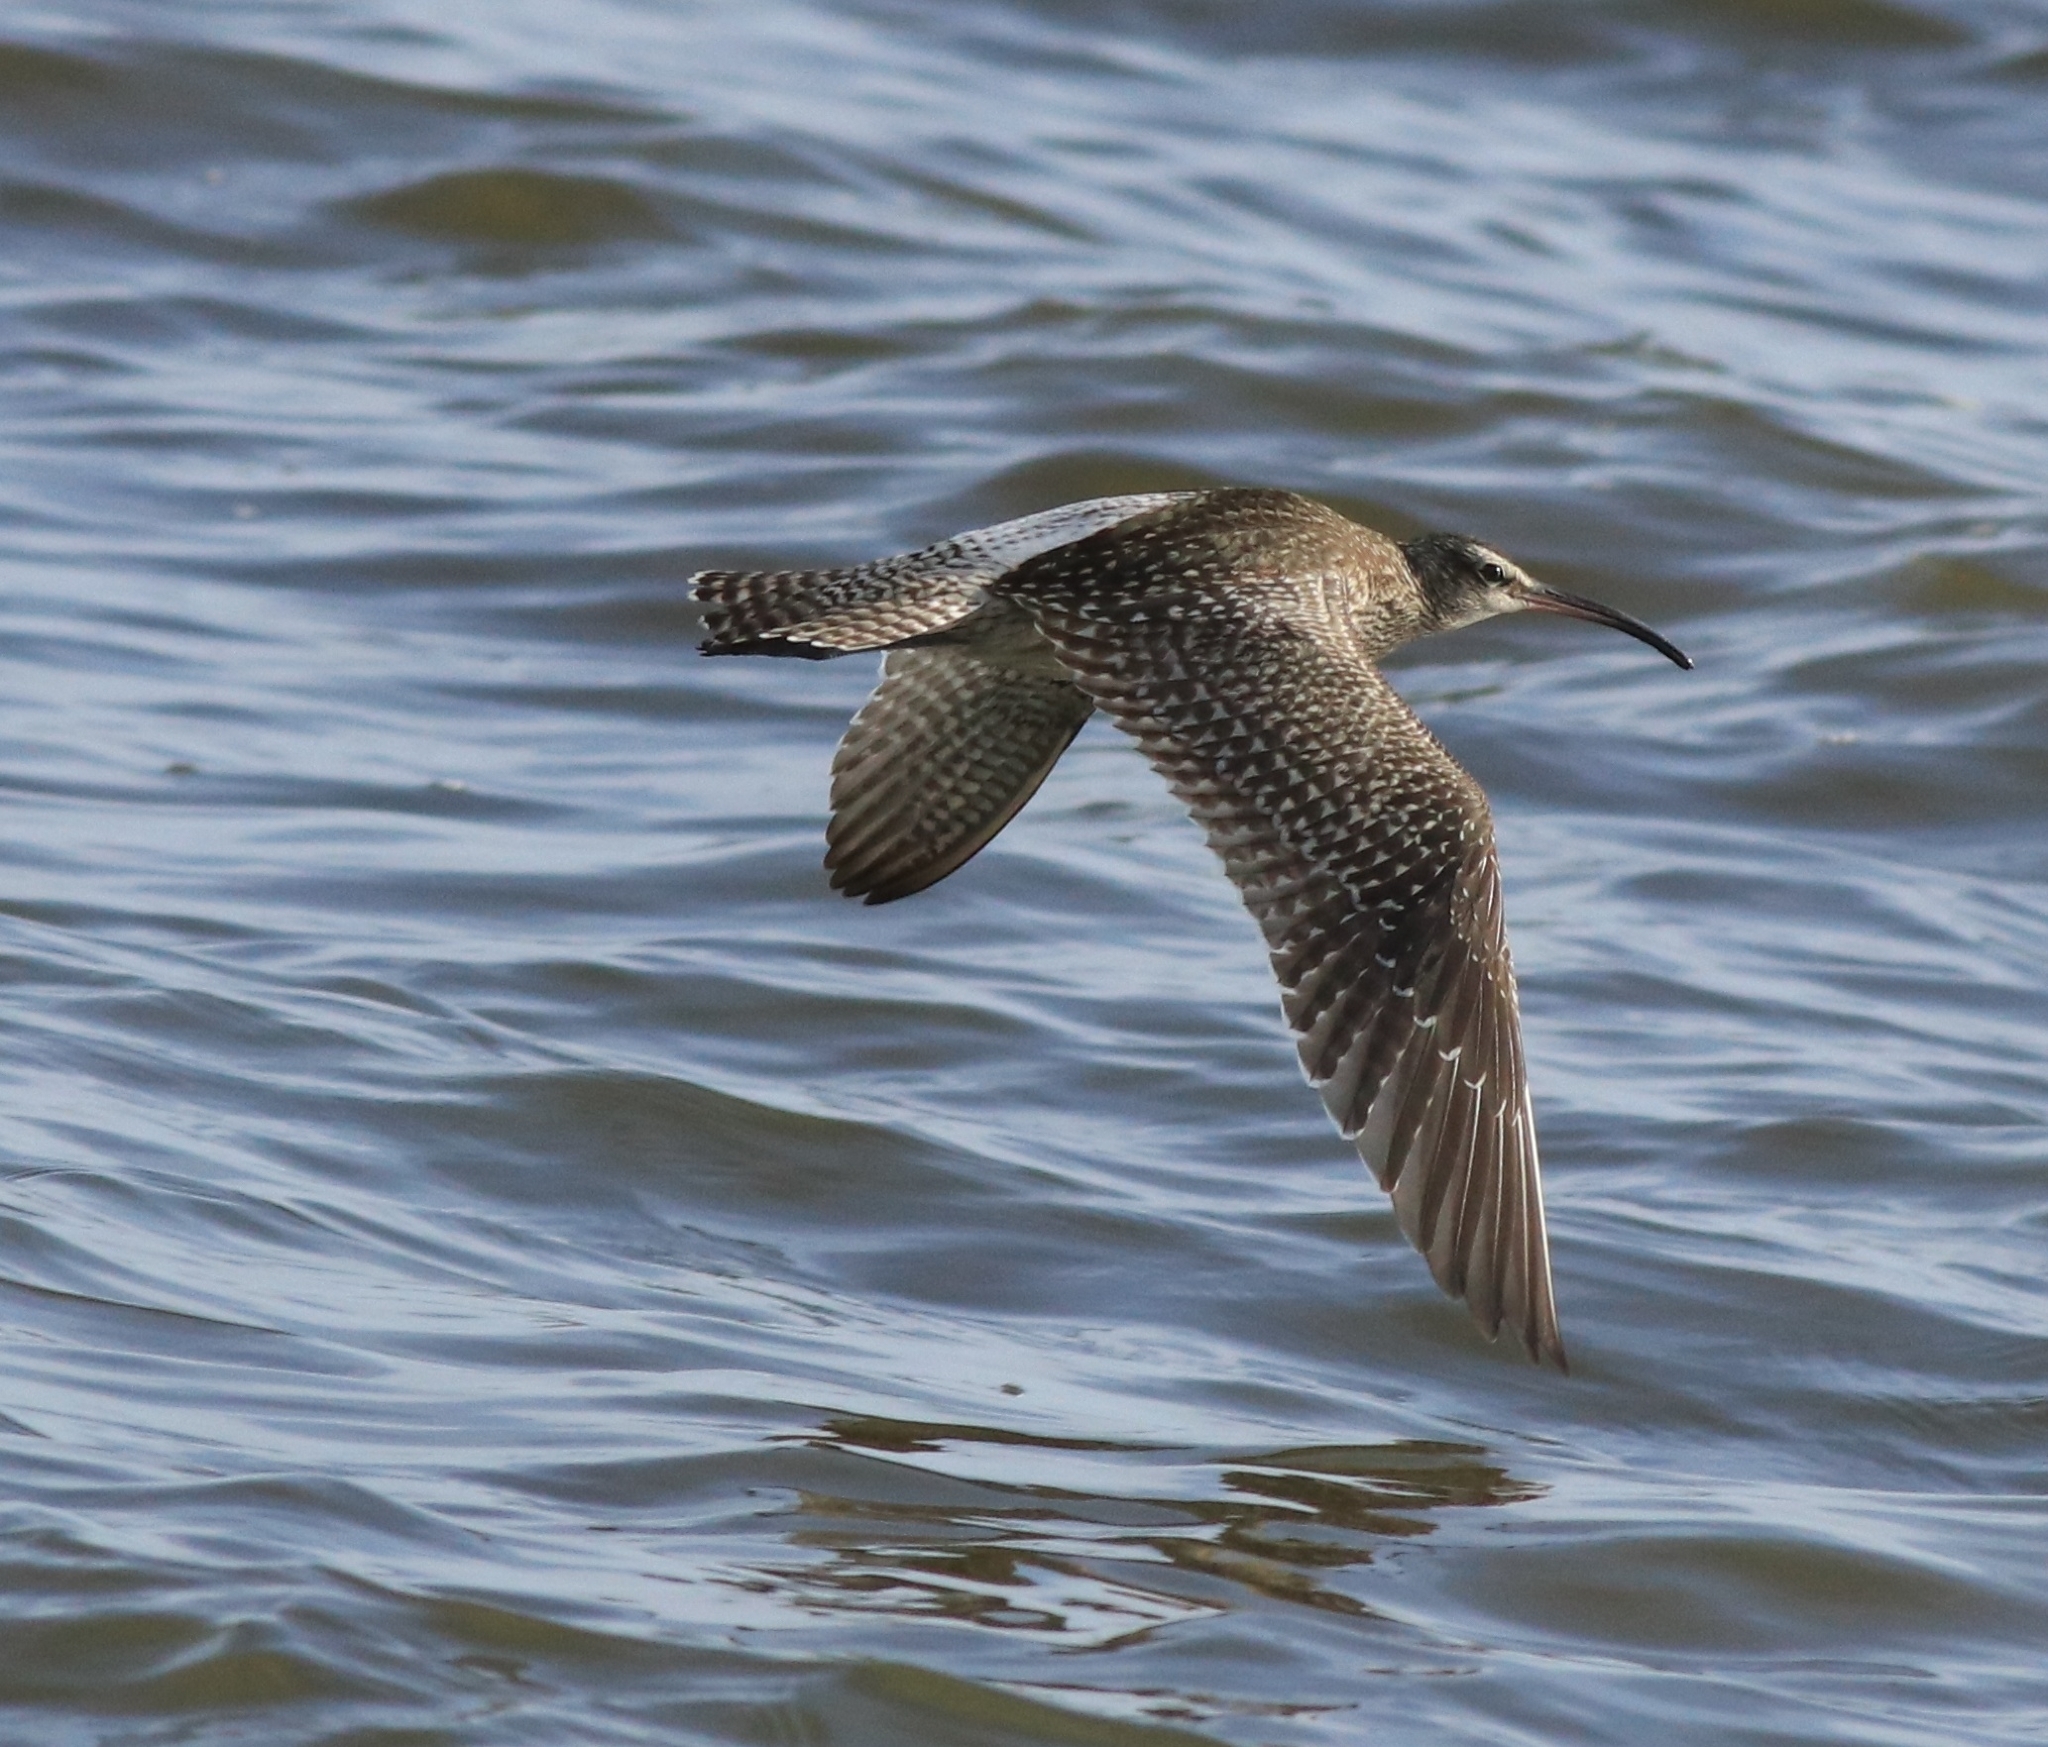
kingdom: Animalia
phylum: Chordata
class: Aves
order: Charadriiformes
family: Scolopacidae
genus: Numenius
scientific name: Numenius phaeopus
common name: Whimbrel
